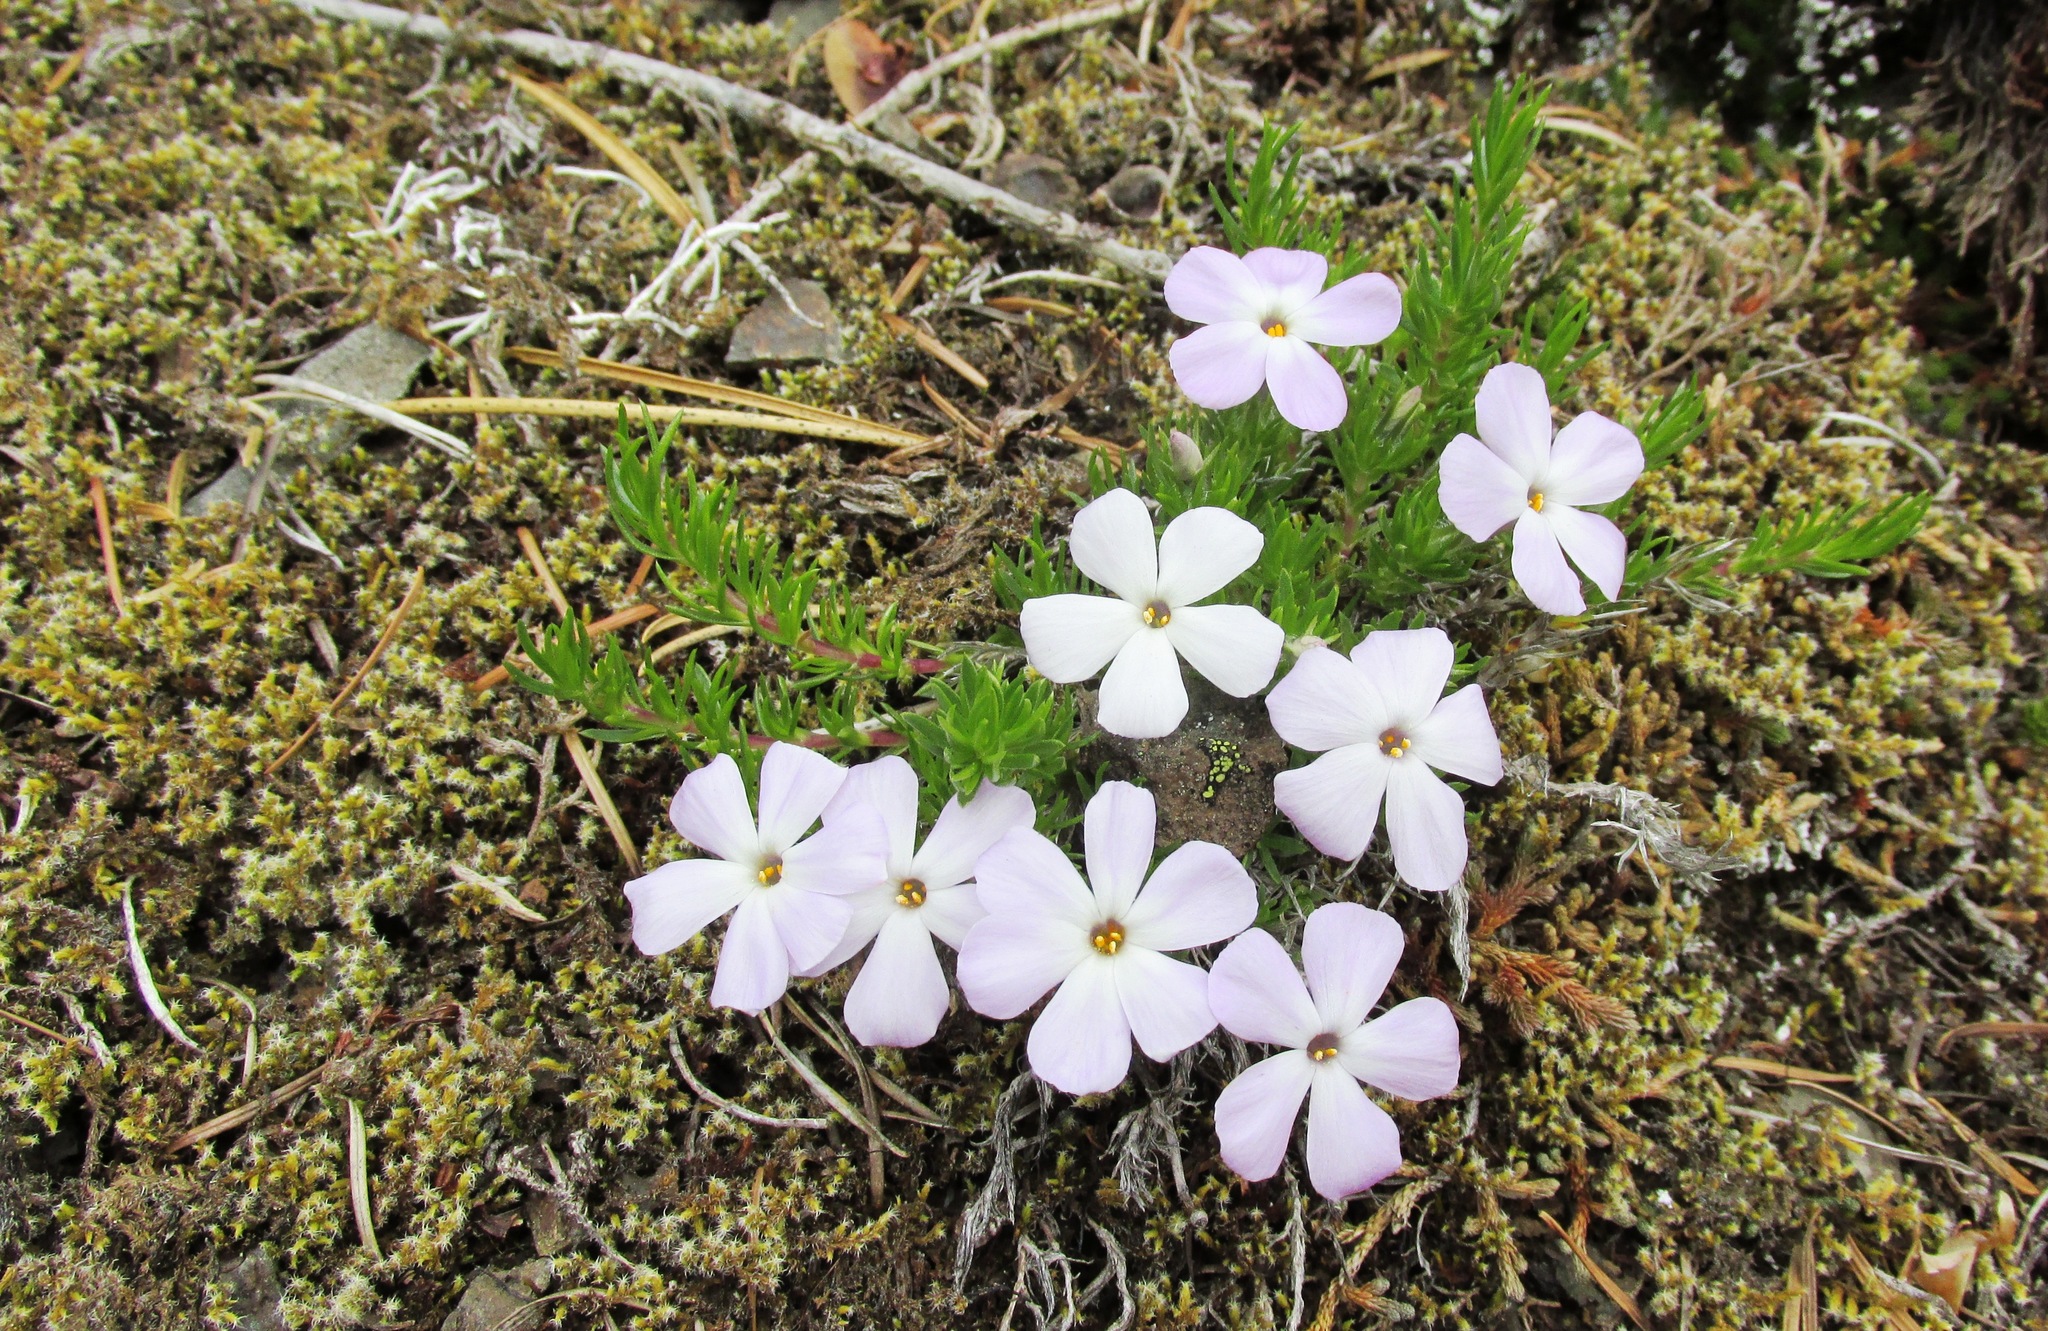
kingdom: Plantae
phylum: Tracheophyta
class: Magnoliopsida
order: Ericales
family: Polemoniaceae
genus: Phlox
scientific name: Phlox diffusa
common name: Mat phlox
